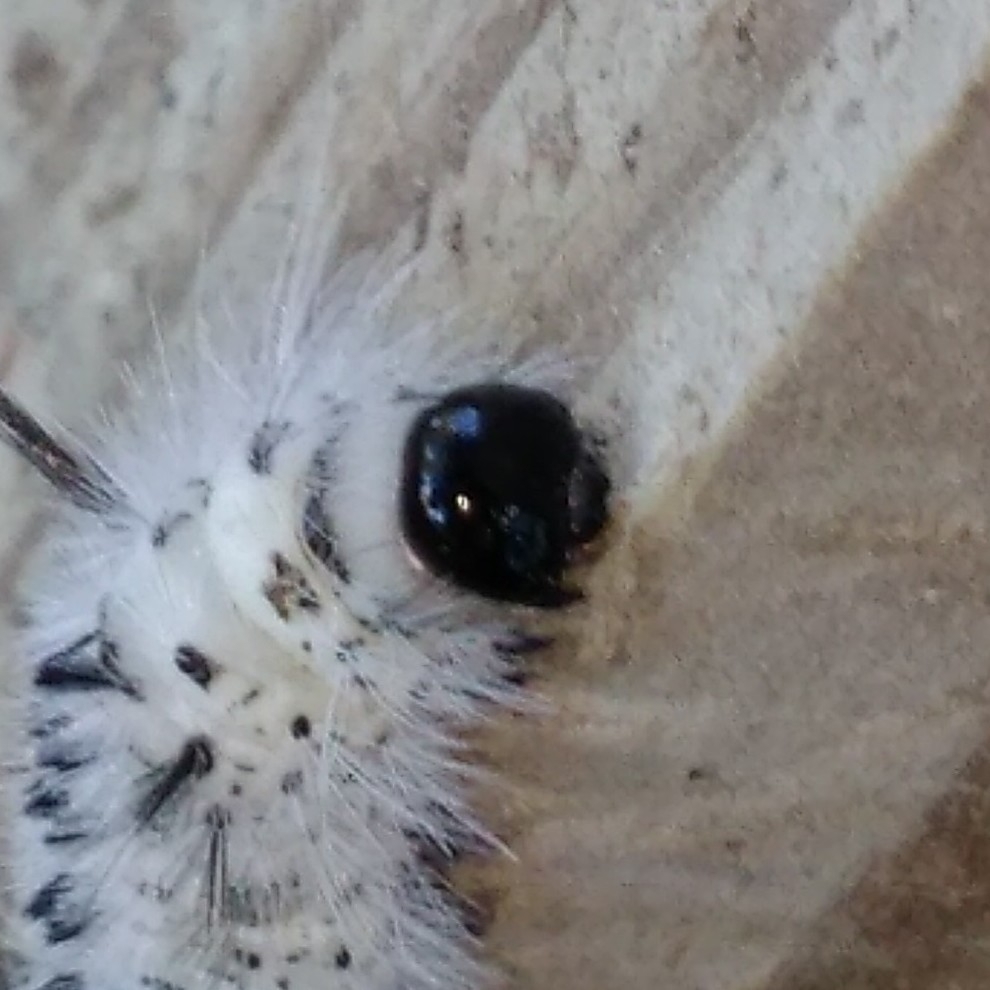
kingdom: Animalia
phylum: Arthropoda
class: Insecta
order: Lepidoptera
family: Erebidae
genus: Lophocampa
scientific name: Lophocampa caryae
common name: Hickory tussock moth
